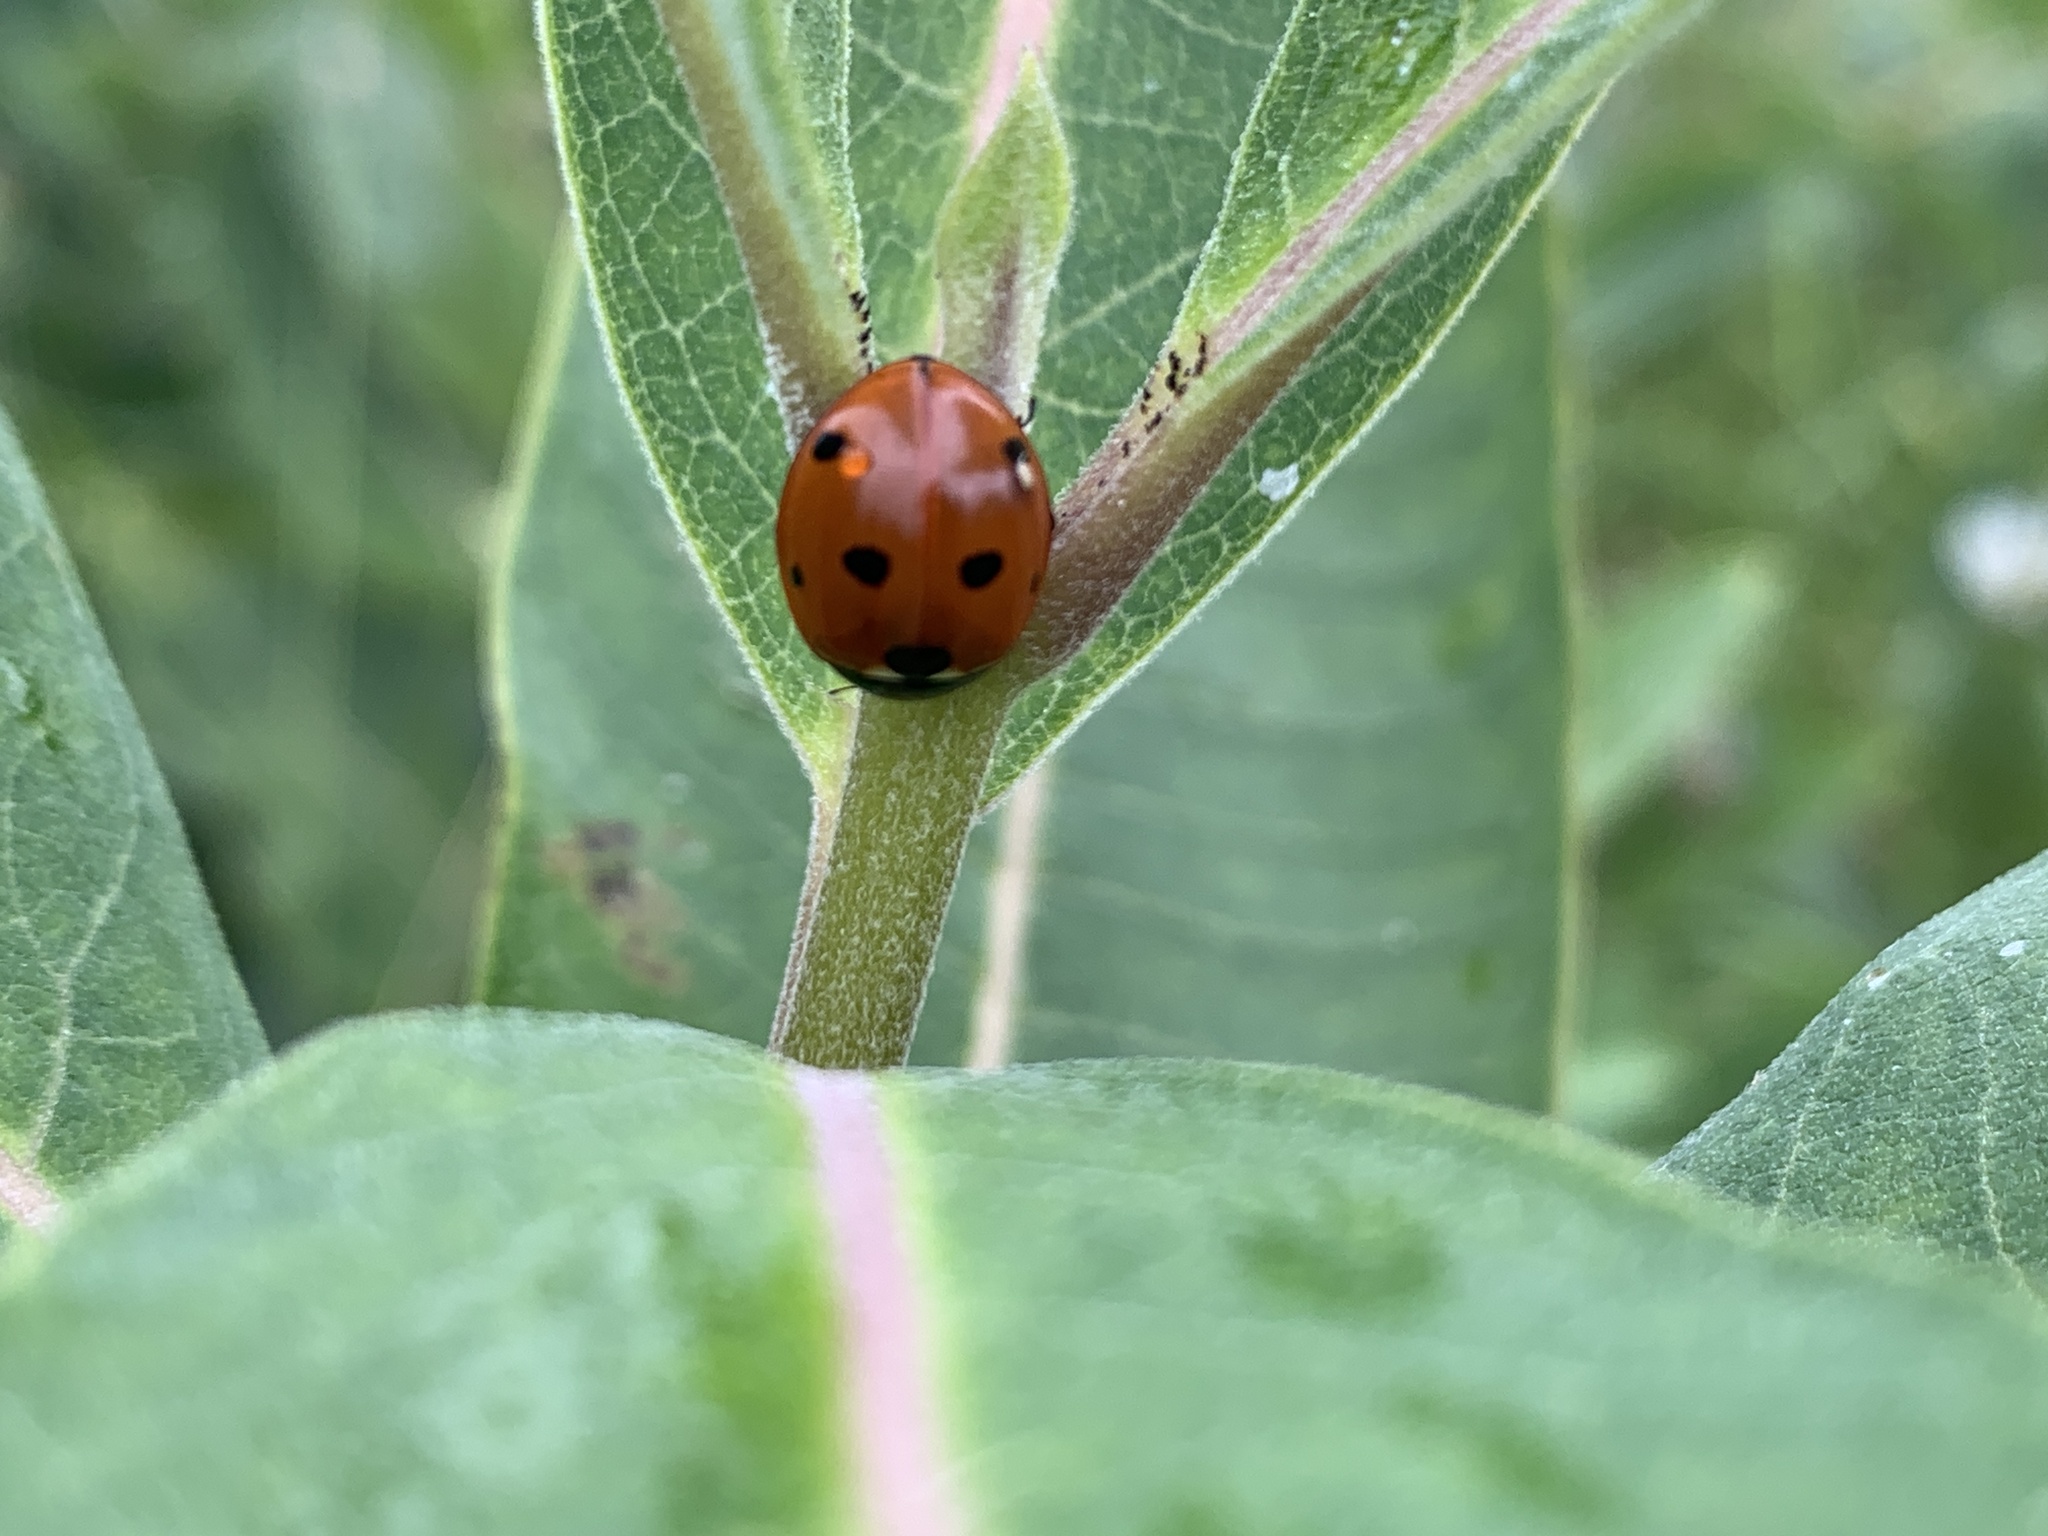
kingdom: Animalia
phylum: Arthropoda
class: Insecta
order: Coleoptera
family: Coccinellidae
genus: Coccinella
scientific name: Coccinella septempunctata
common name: Sevenspotted lady beetle
